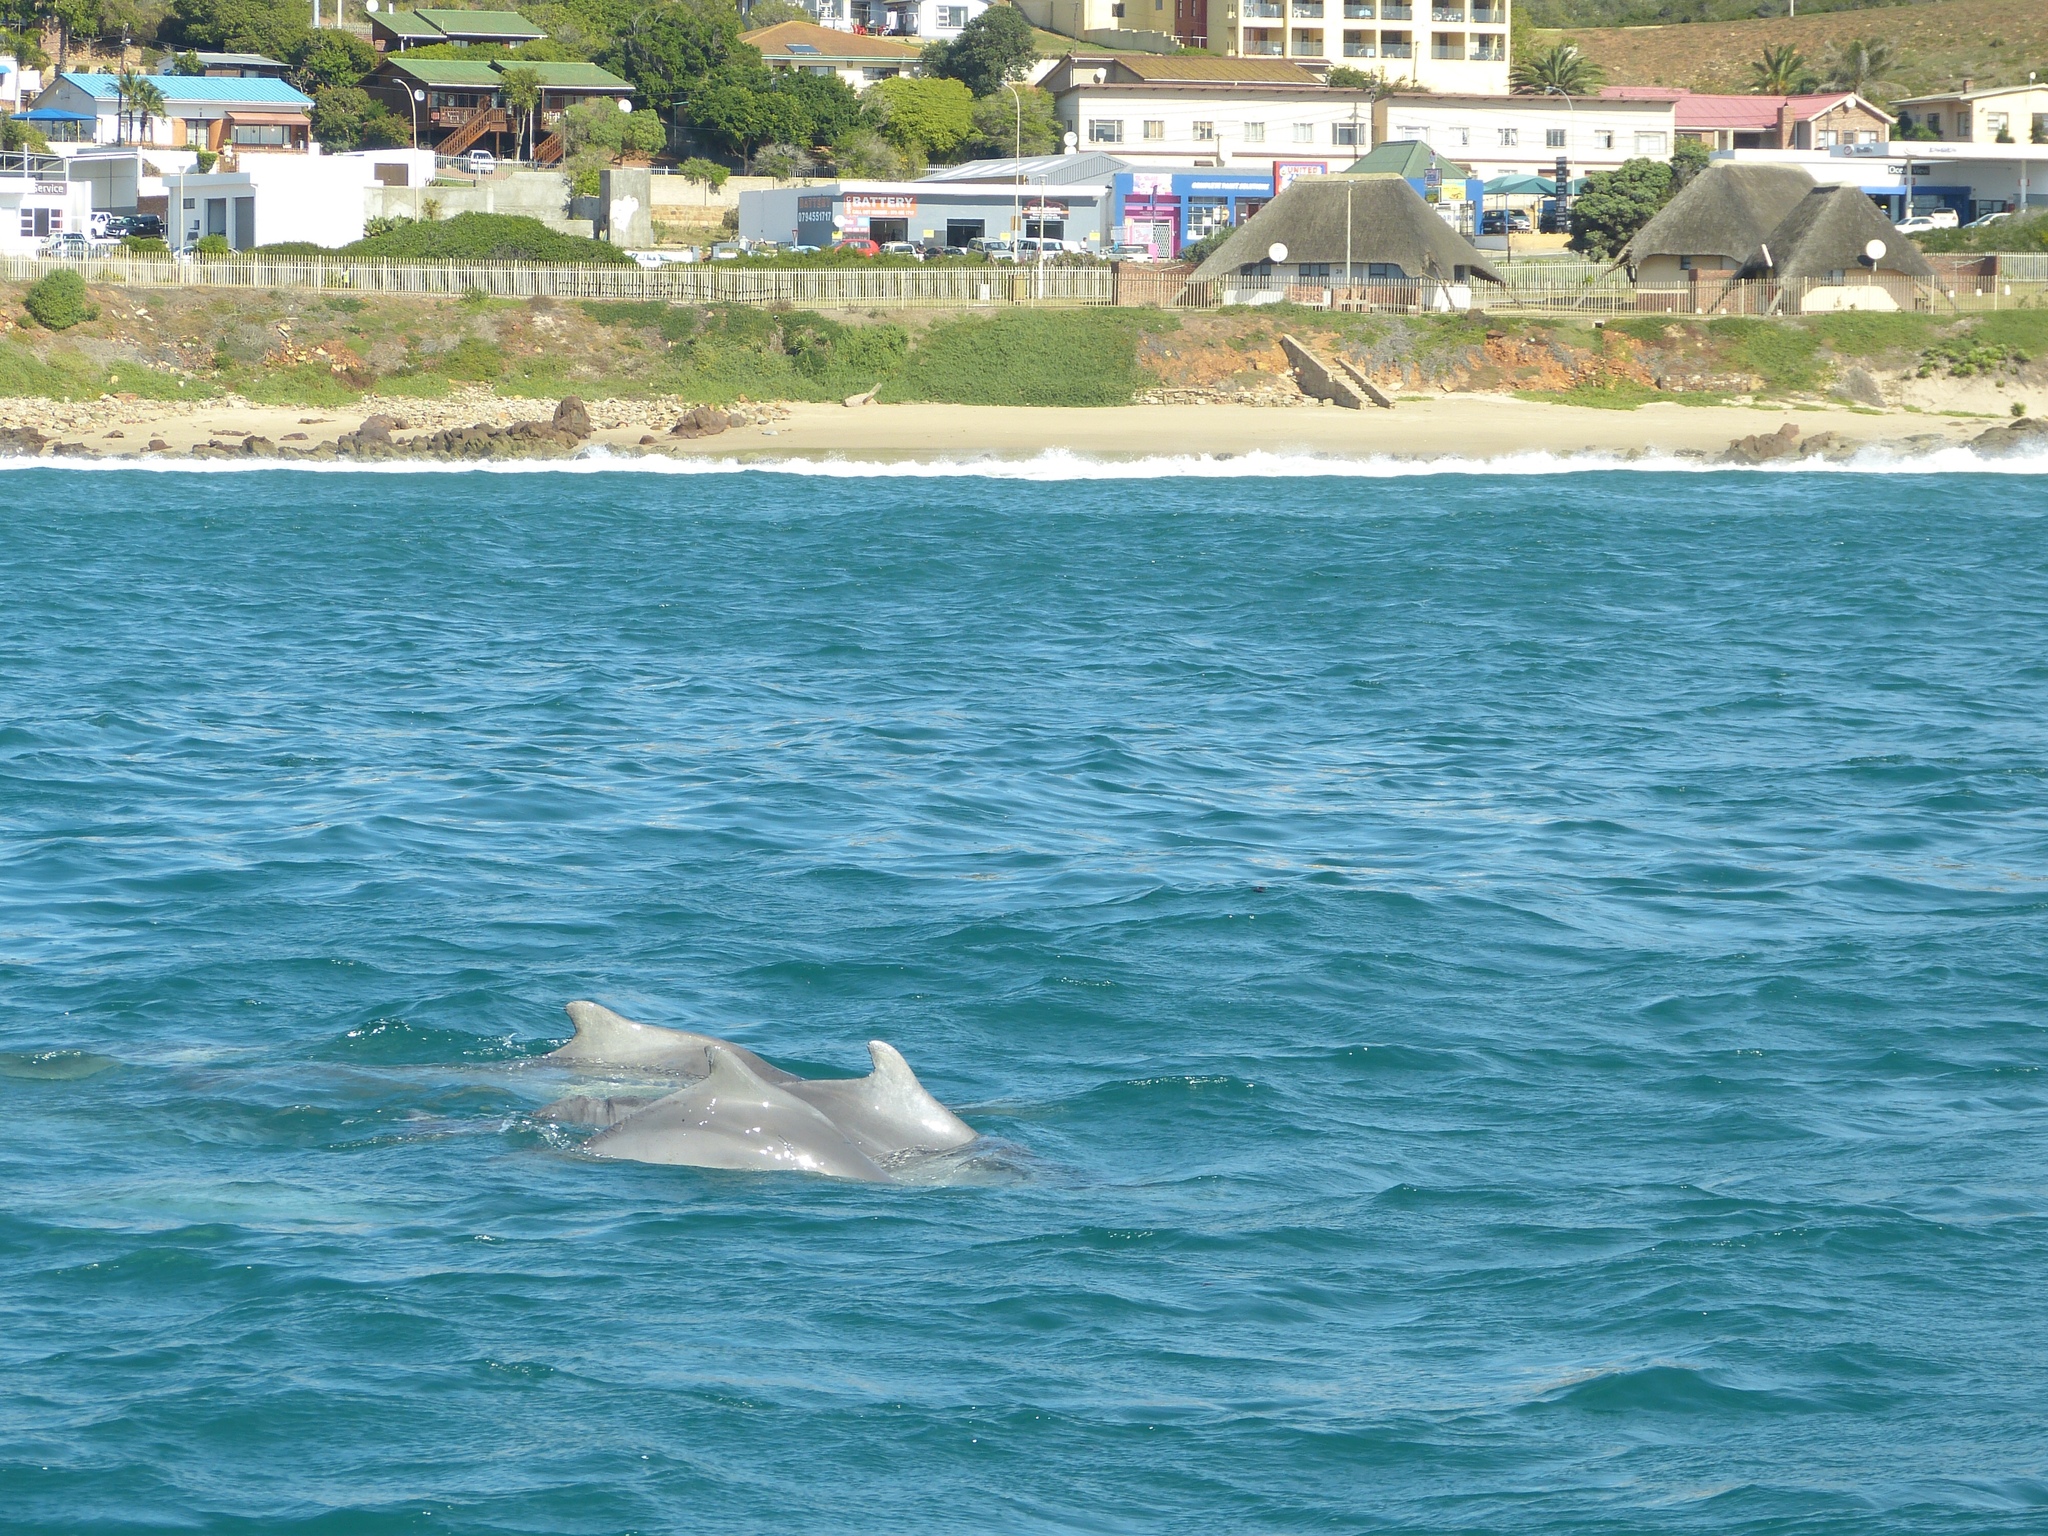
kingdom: Animalia
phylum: Chordata
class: Mammalia
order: Cetacea
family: Delphinidae
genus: Sousa
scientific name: Sousa plumbea
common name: Indian ocean humpback dolphin
